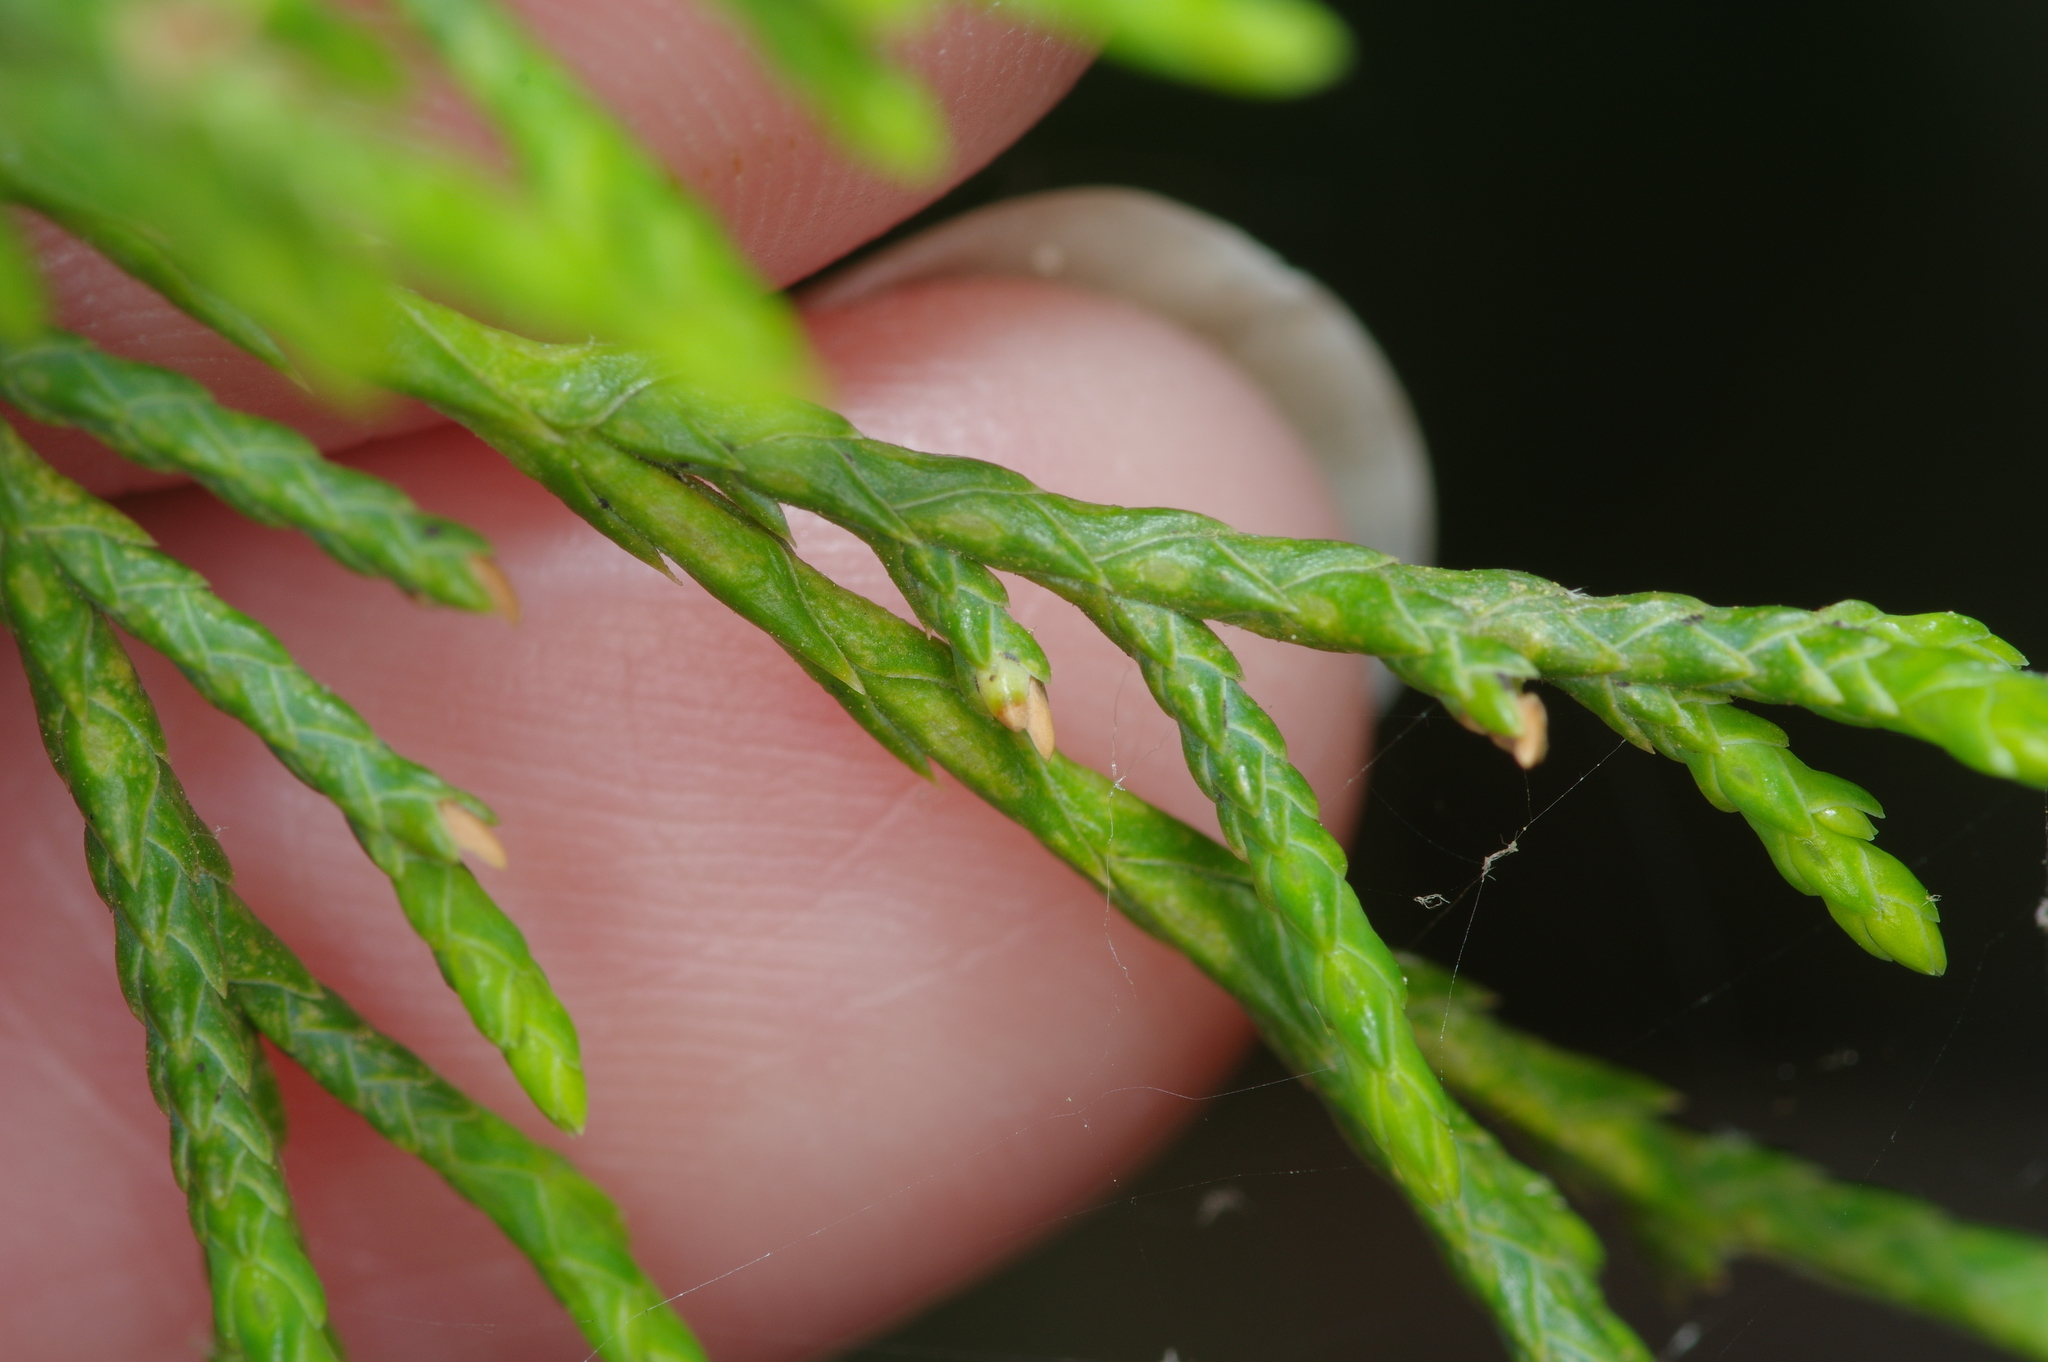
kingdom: Plantae
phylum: Tracheophyta
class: Pinopsida
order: Pinales
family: Cupressaceae
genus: Juniperus
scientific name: Juniperus virginiana
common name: Red juniper
